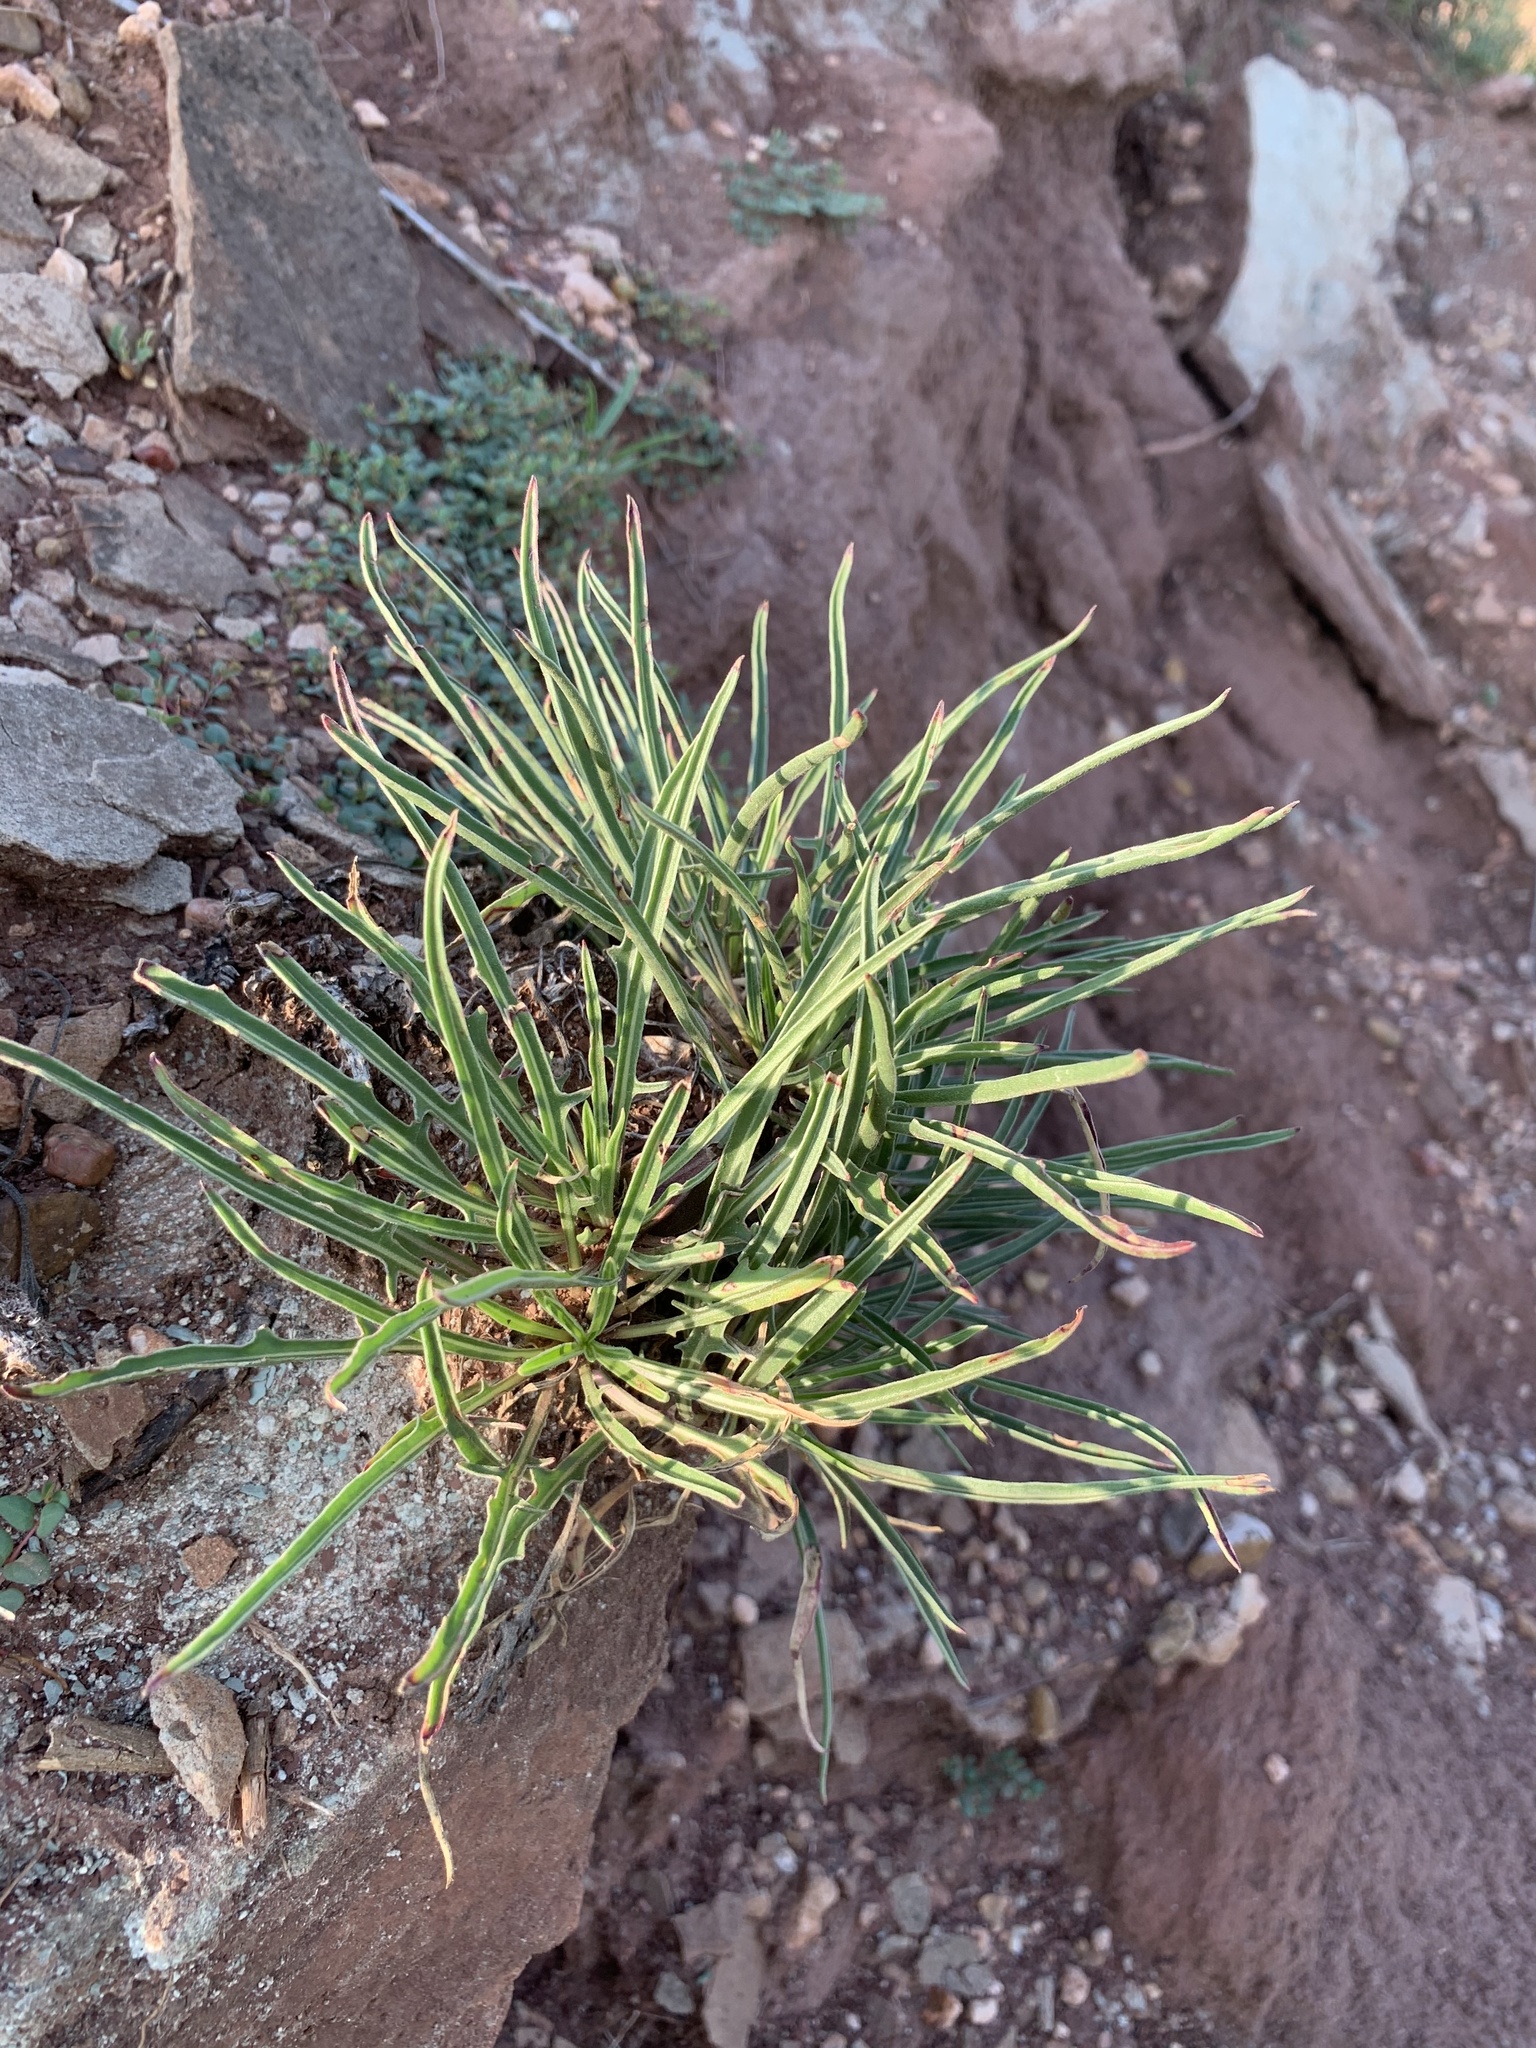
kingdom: Plantae
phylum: Tracheophyta
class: Magnoliopsida
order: Myrtales
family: Onagraceae
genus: Oenothera
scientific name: Oenothera coryi
